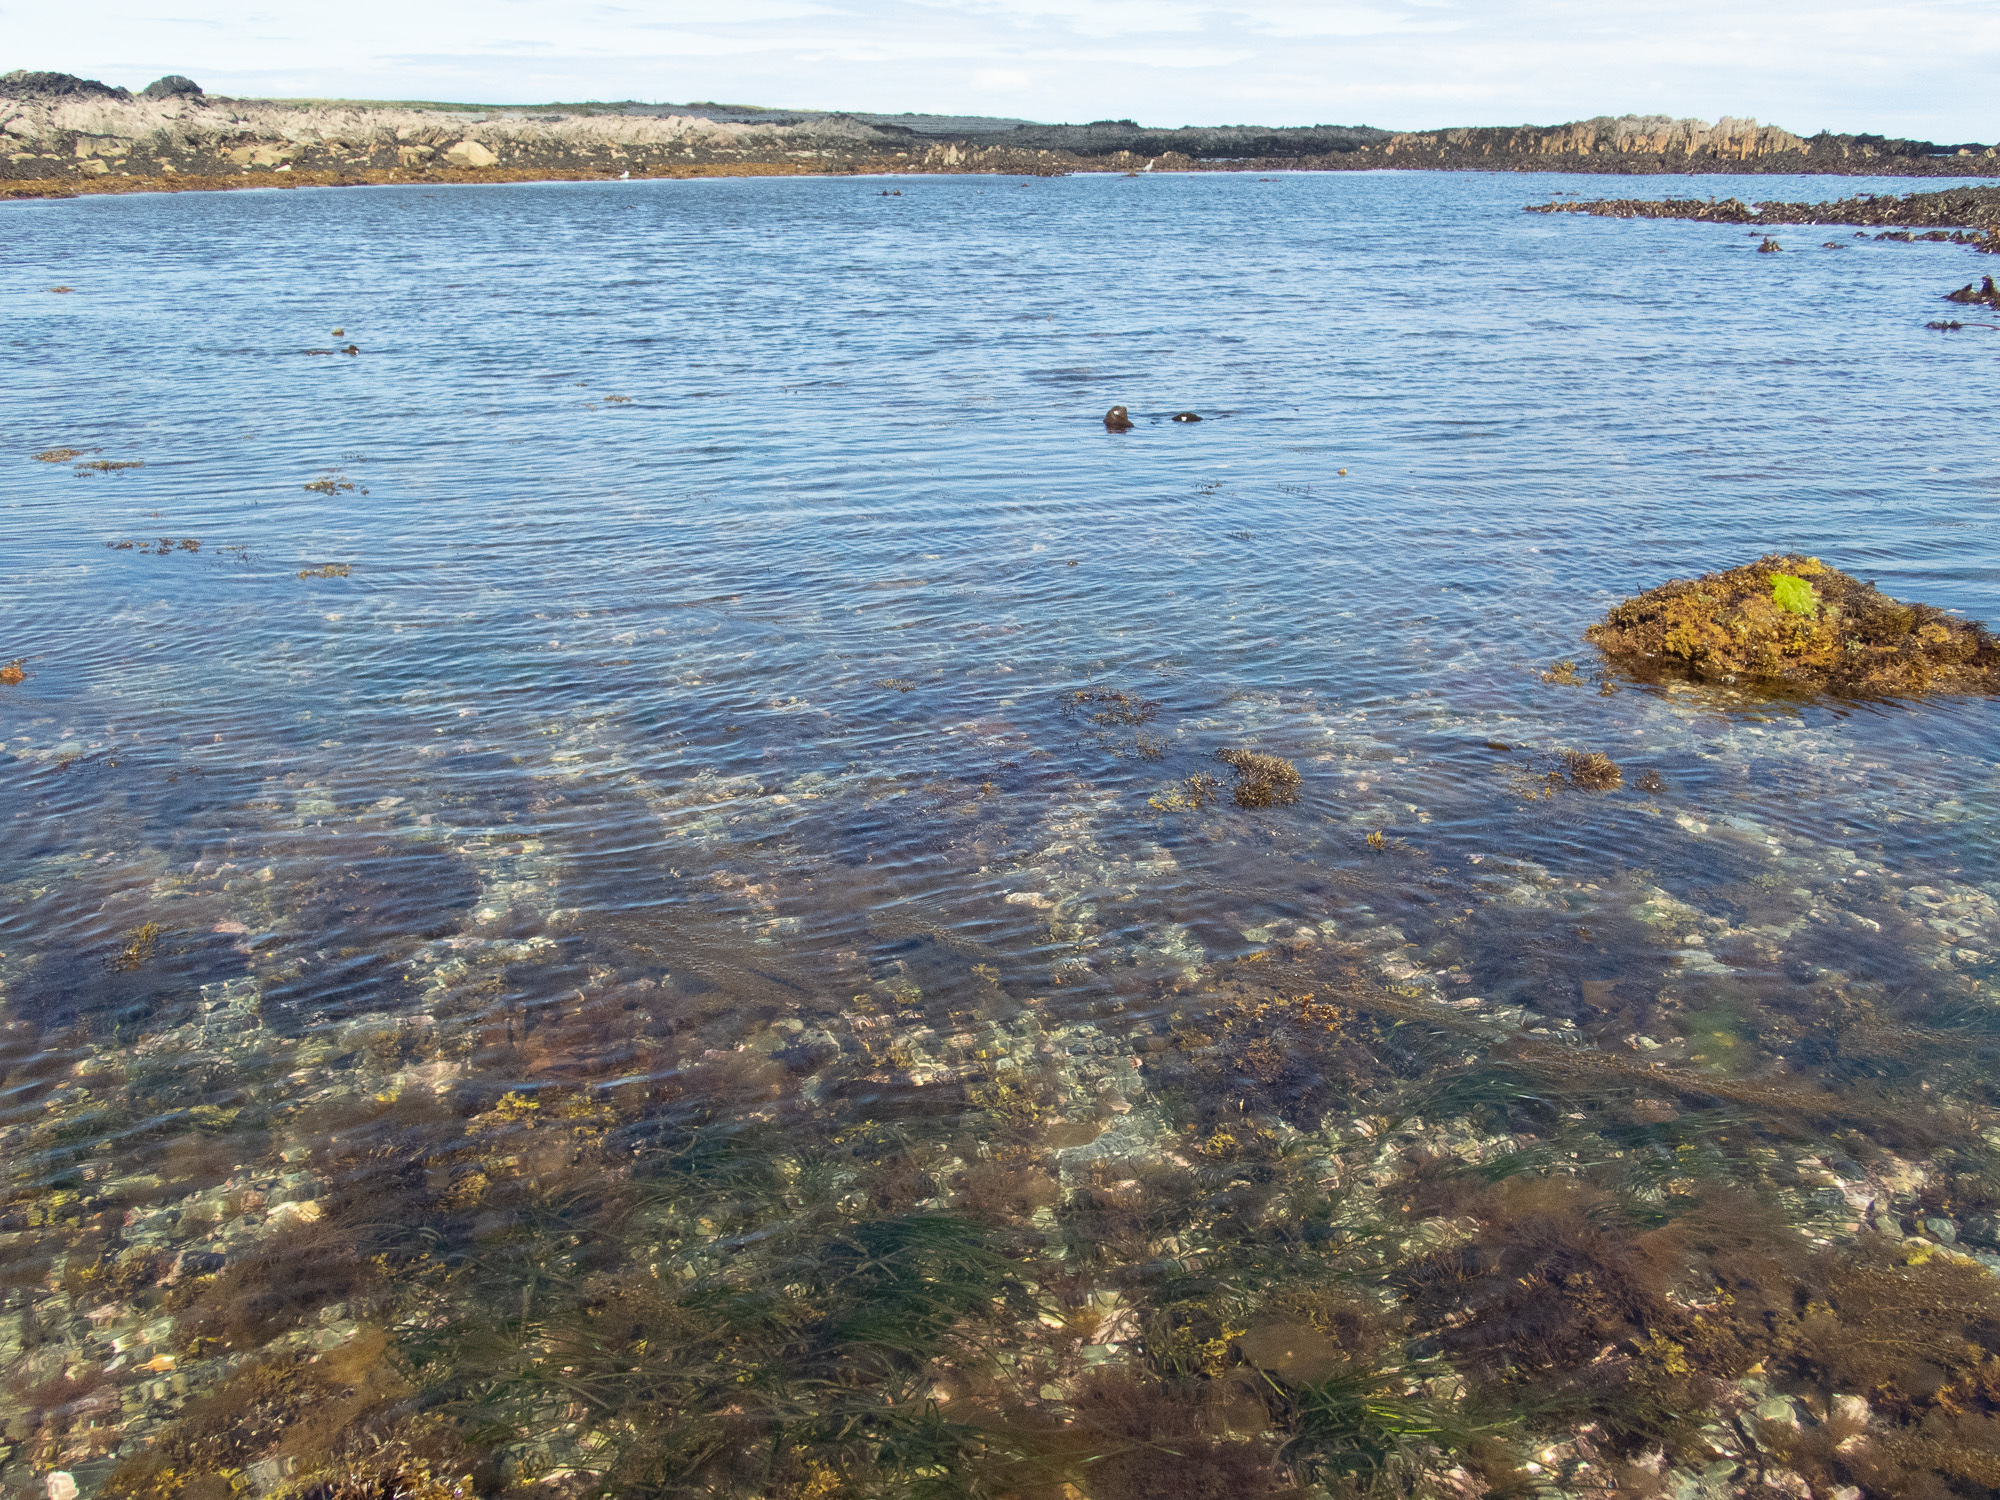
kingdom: Plantae
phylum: Tracheophyta
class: Liliopsida
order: Alismatales
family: Zosteraceae
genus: Zostera
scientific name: Zostera marina
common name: Eelgrass
